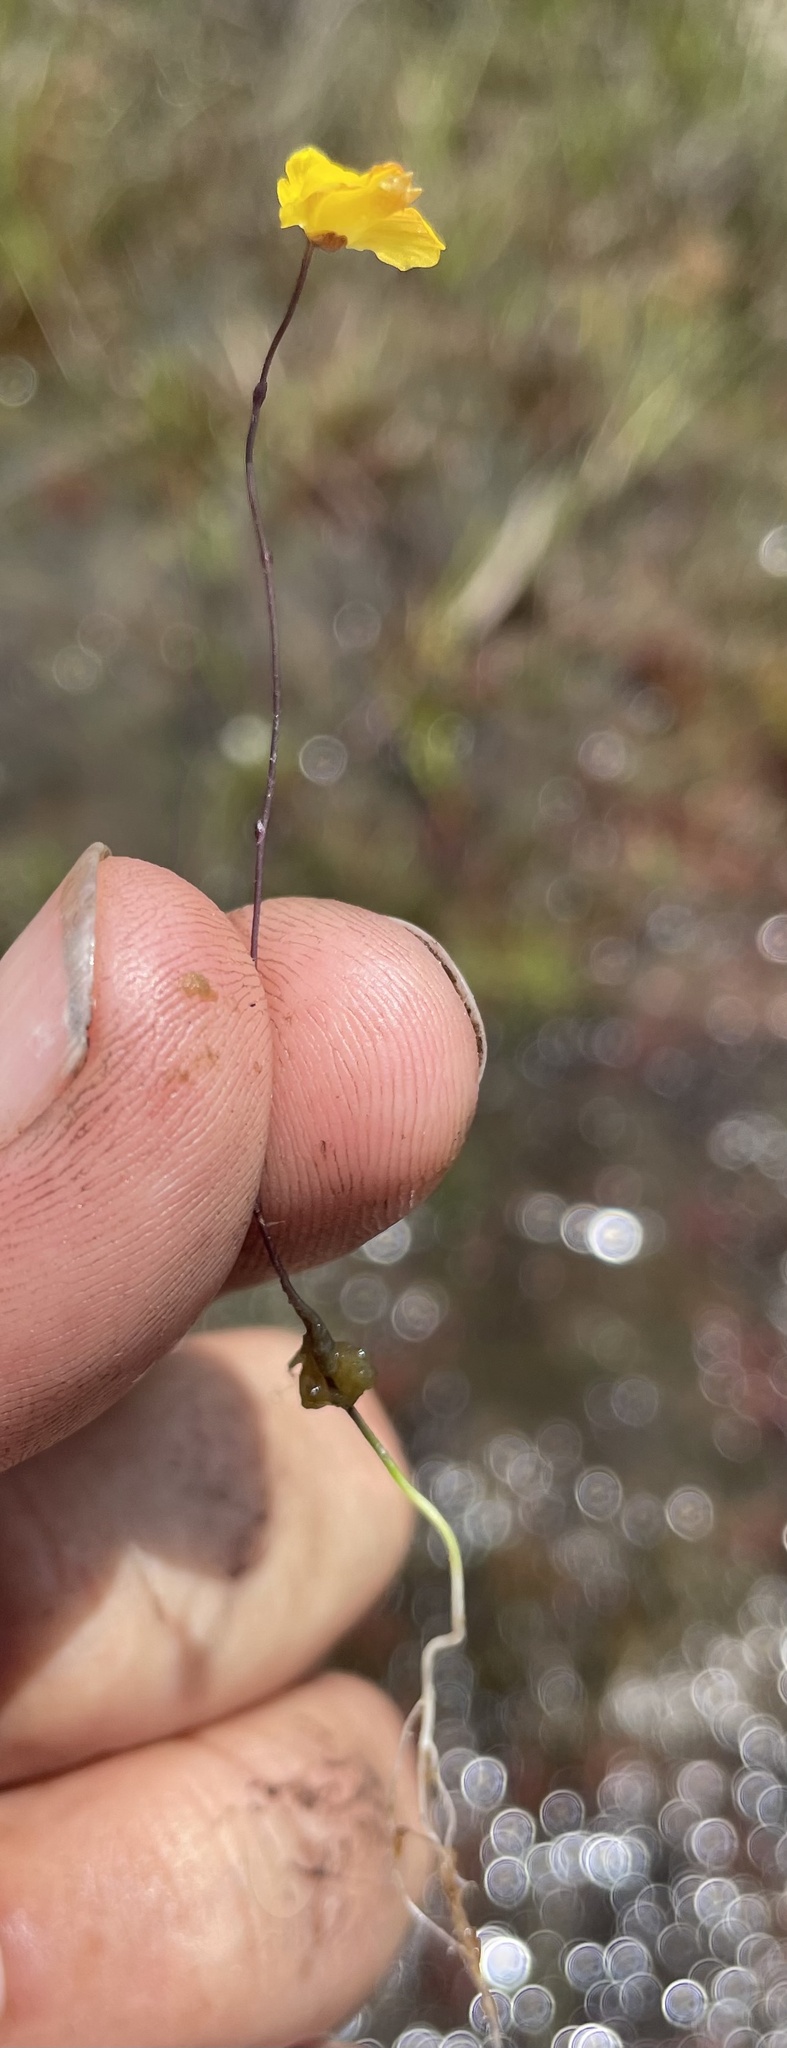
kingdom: Plantae
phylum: Tracheophyta
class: Magnoliopsida
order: Lamiales
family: Lentibulariaceae
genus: Utricularia
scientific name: Utricularia subulata
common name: Tiny bladderwort
